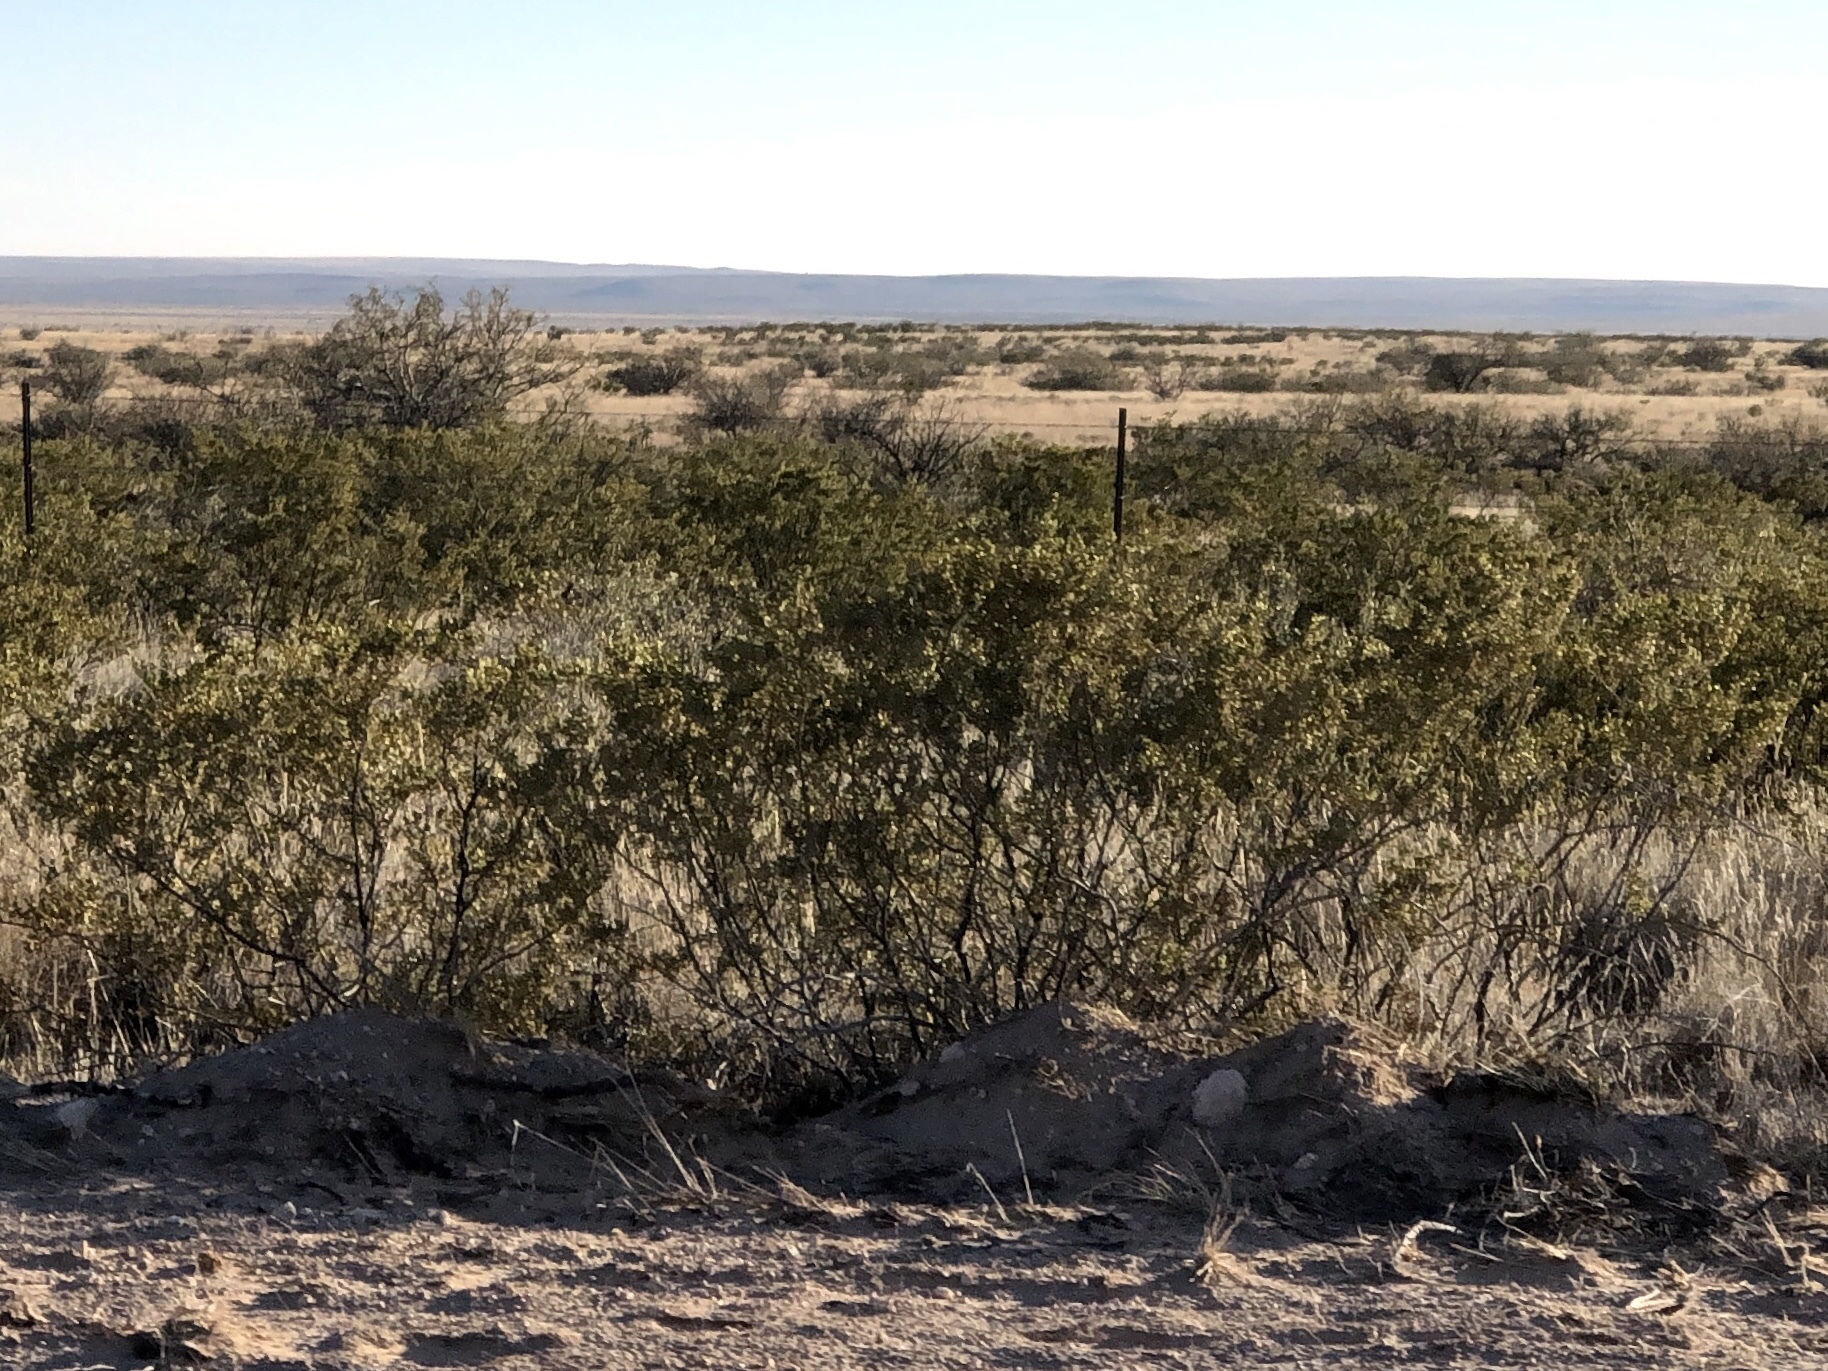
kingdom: Plantae
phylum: Tracheophyta
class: Magnoliopsida
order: Zygophyllales
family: Zygophyllaceae
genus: Larrea
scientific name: Larrea tridentata
